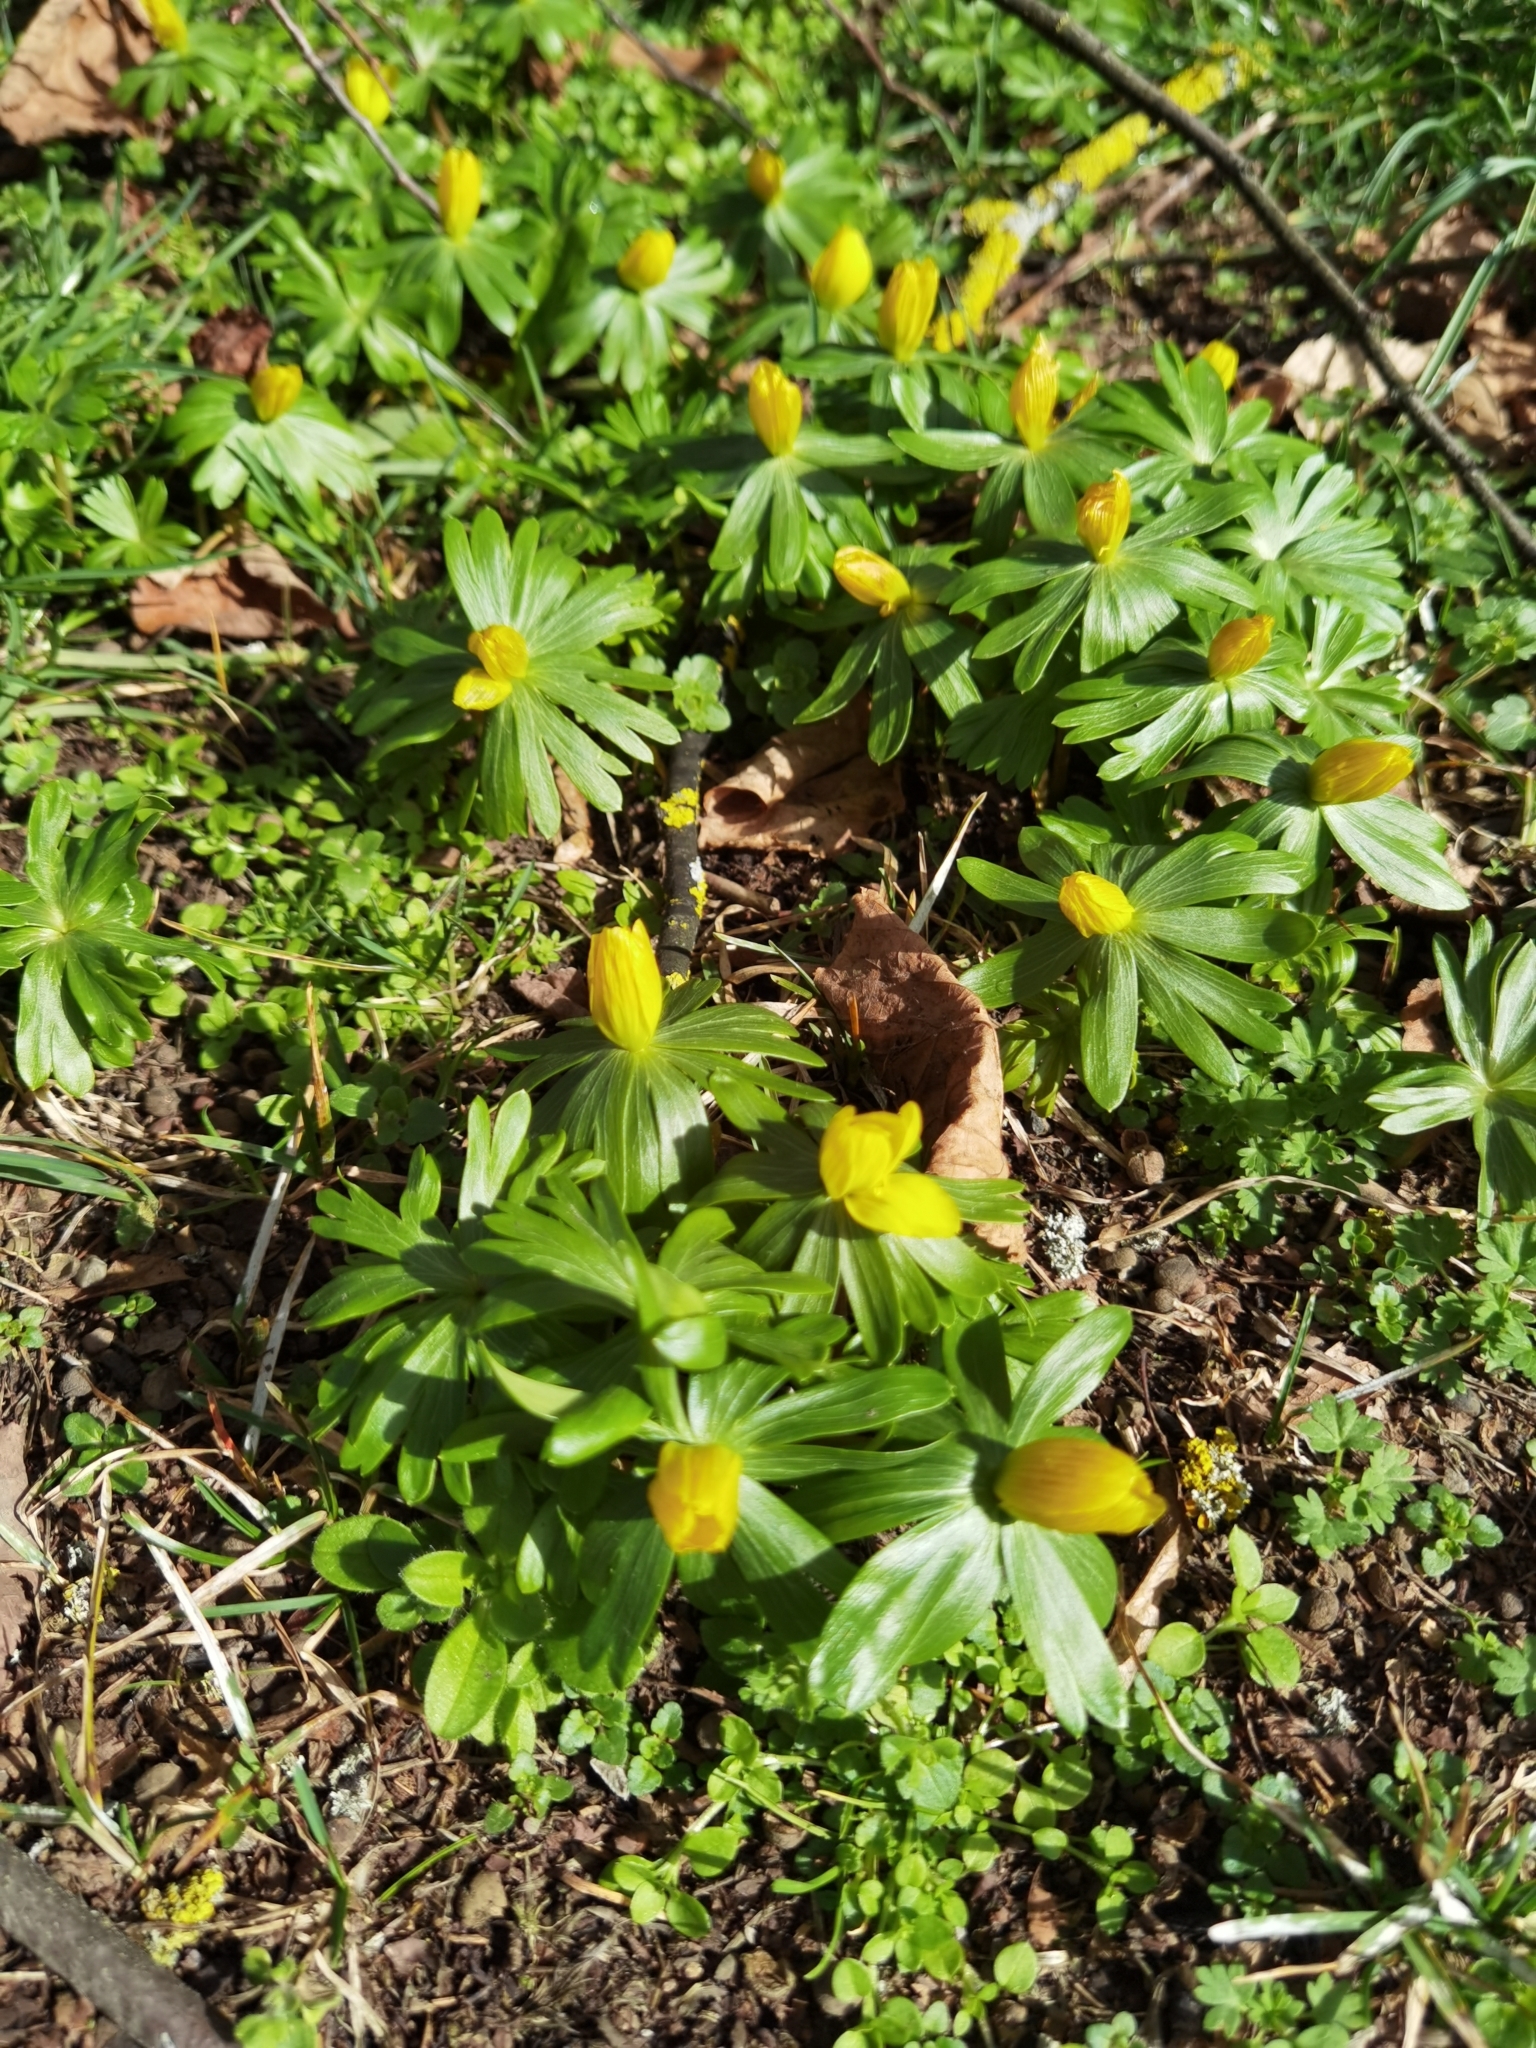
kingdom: Plantae
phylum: Tracheophyta
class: Magnoliopsida
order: Ranunculales
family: Ranunculaceae
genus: Eranthis
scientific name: Eranthis hyemalis
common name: Winter aconite
